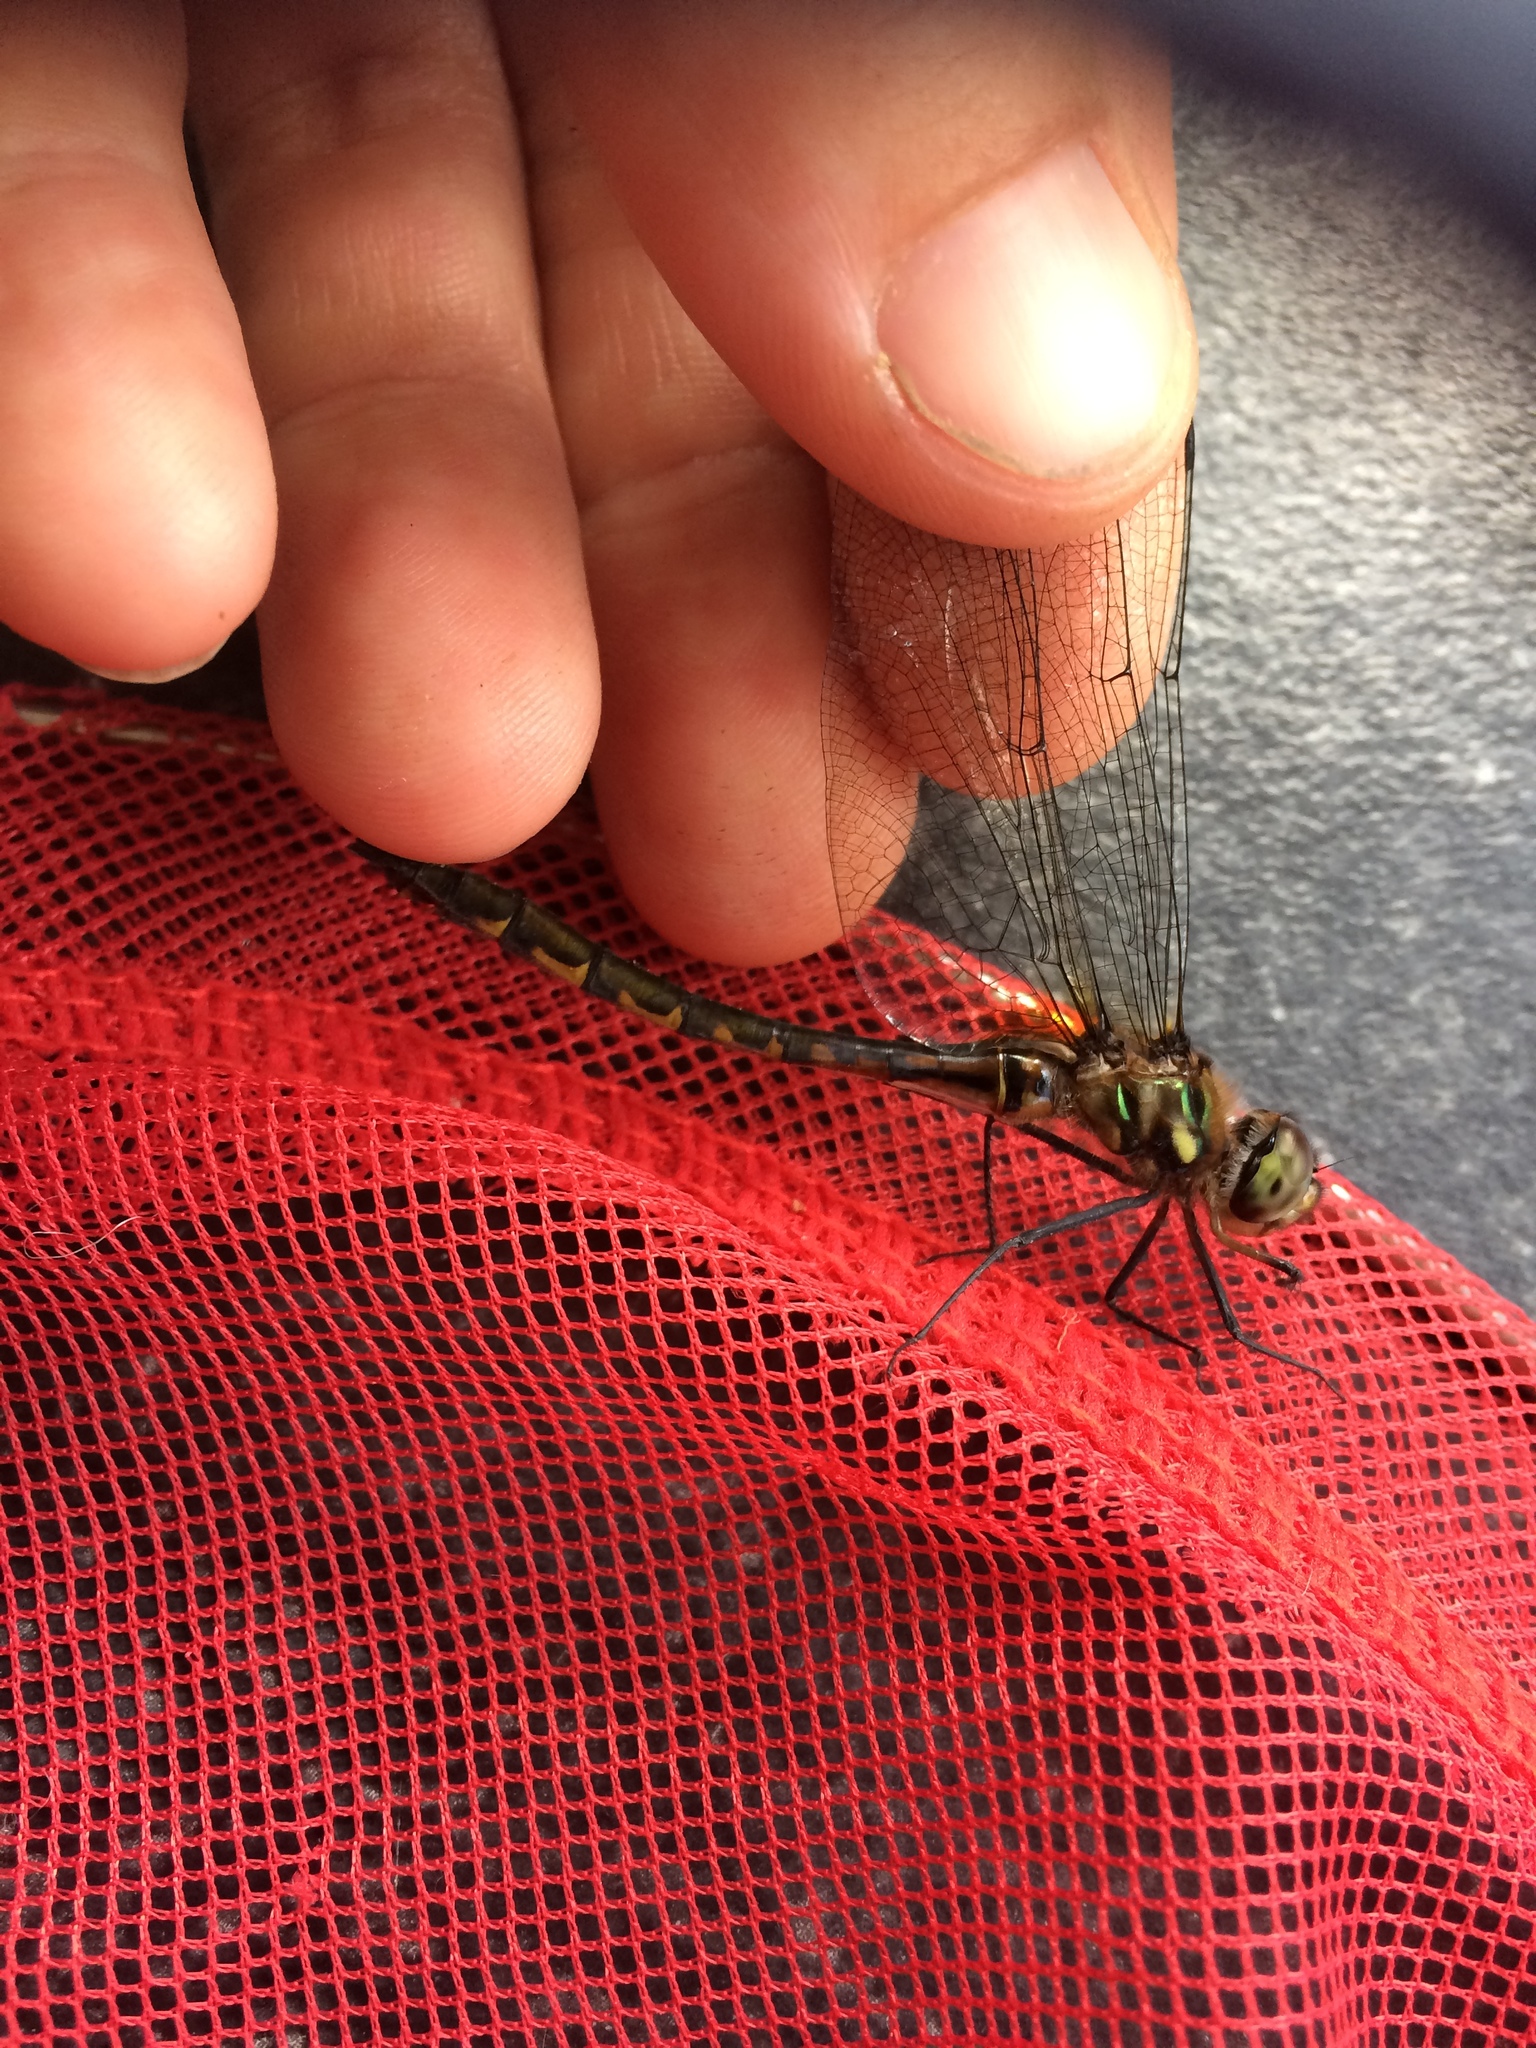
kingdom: Animalia
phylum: Arthropoda
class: Insecta
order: Odonata
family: Corduliidae
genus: Hemicordulia
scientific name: Hemicordulia australiae
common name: Sentry dragonfly
